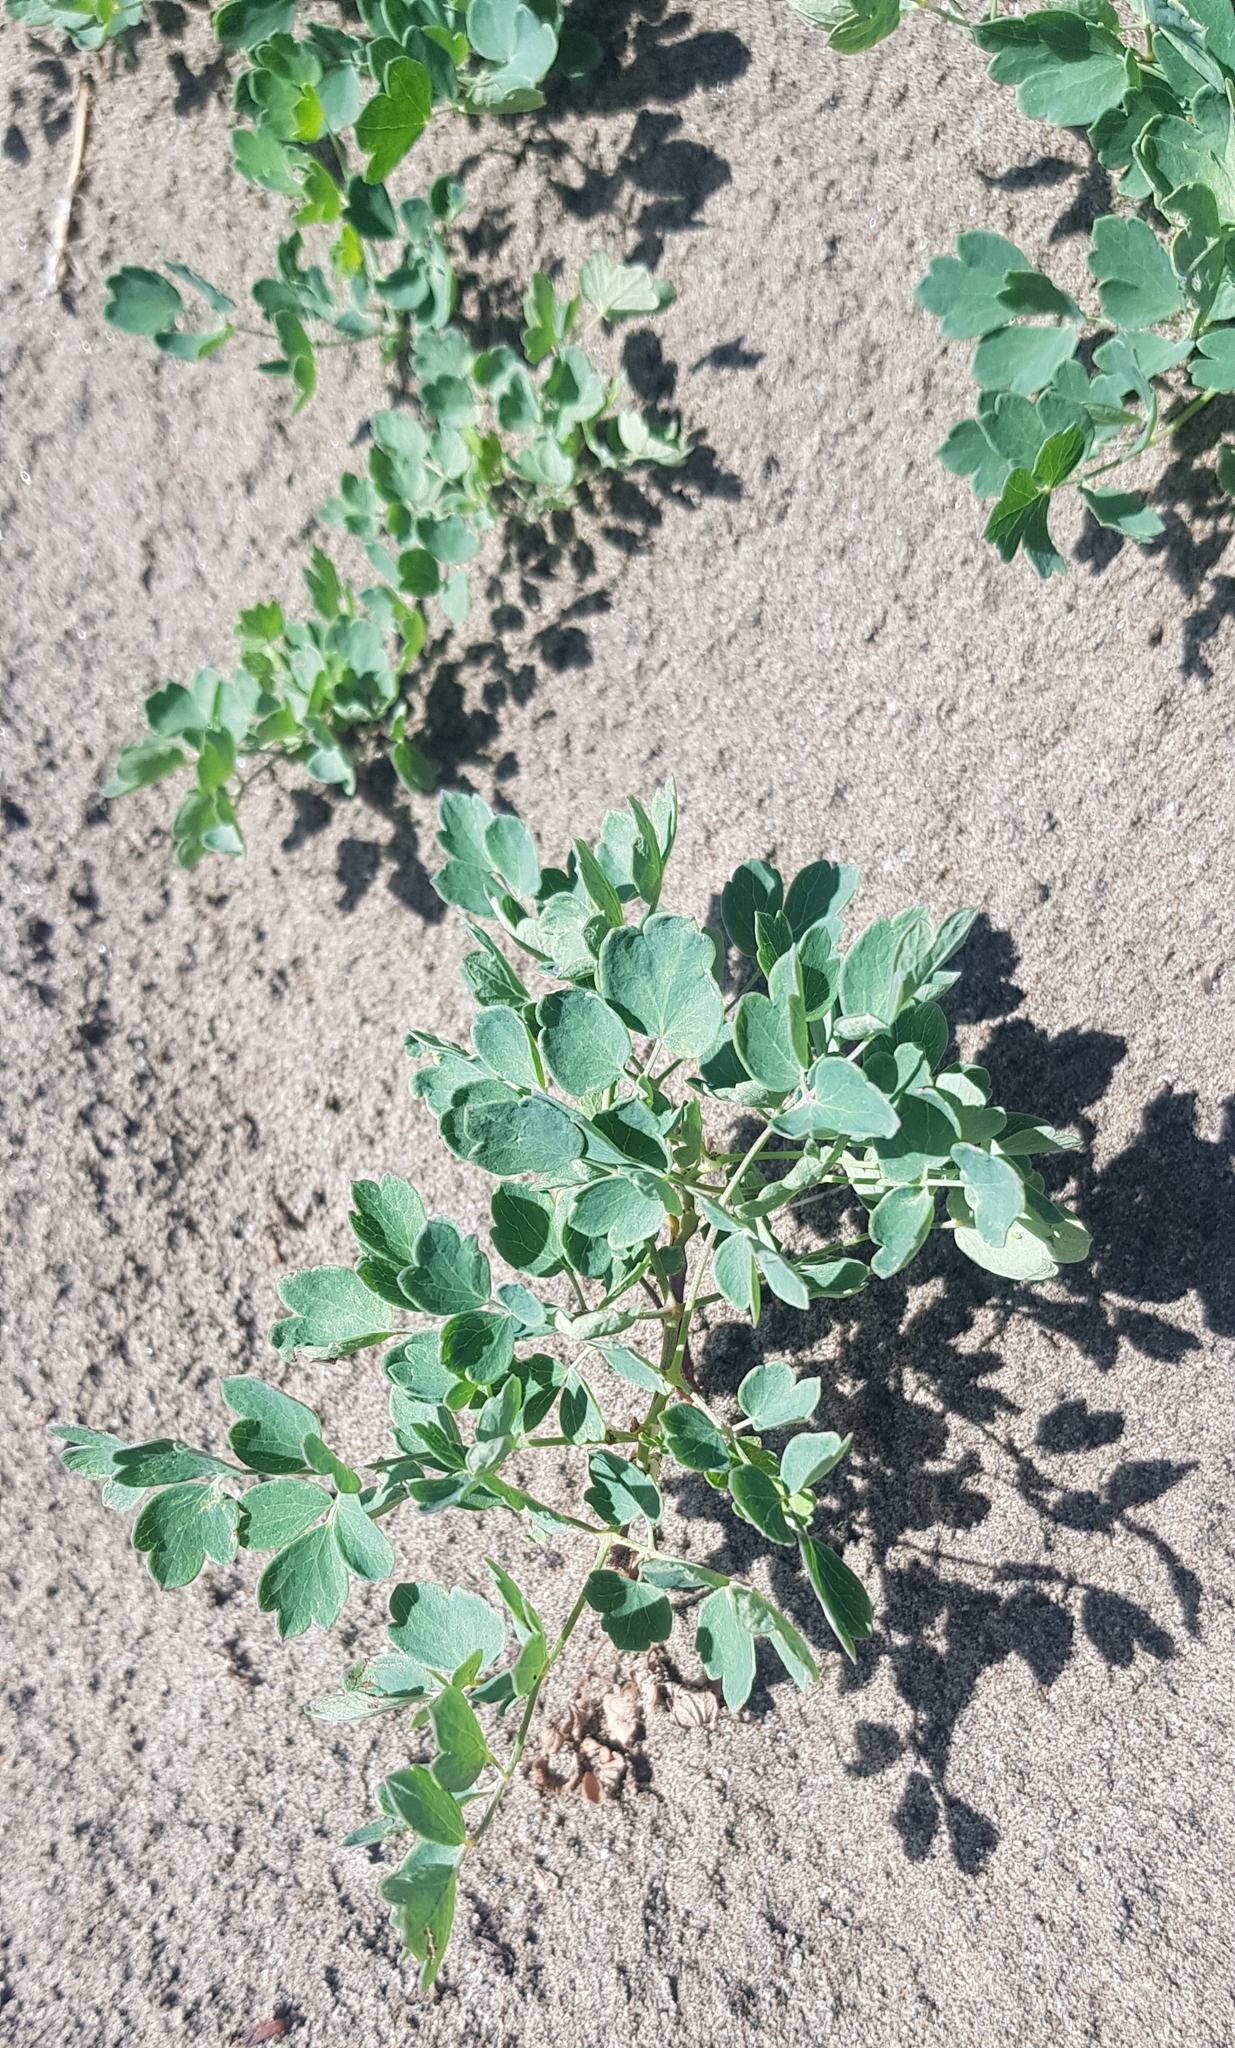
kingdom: Plantae
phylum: Tracheophyta
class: Magnoliopsida
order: Ranunculales
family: Ranunculaceae
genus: Thalictrum
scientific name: Thalictrum petaloideum
